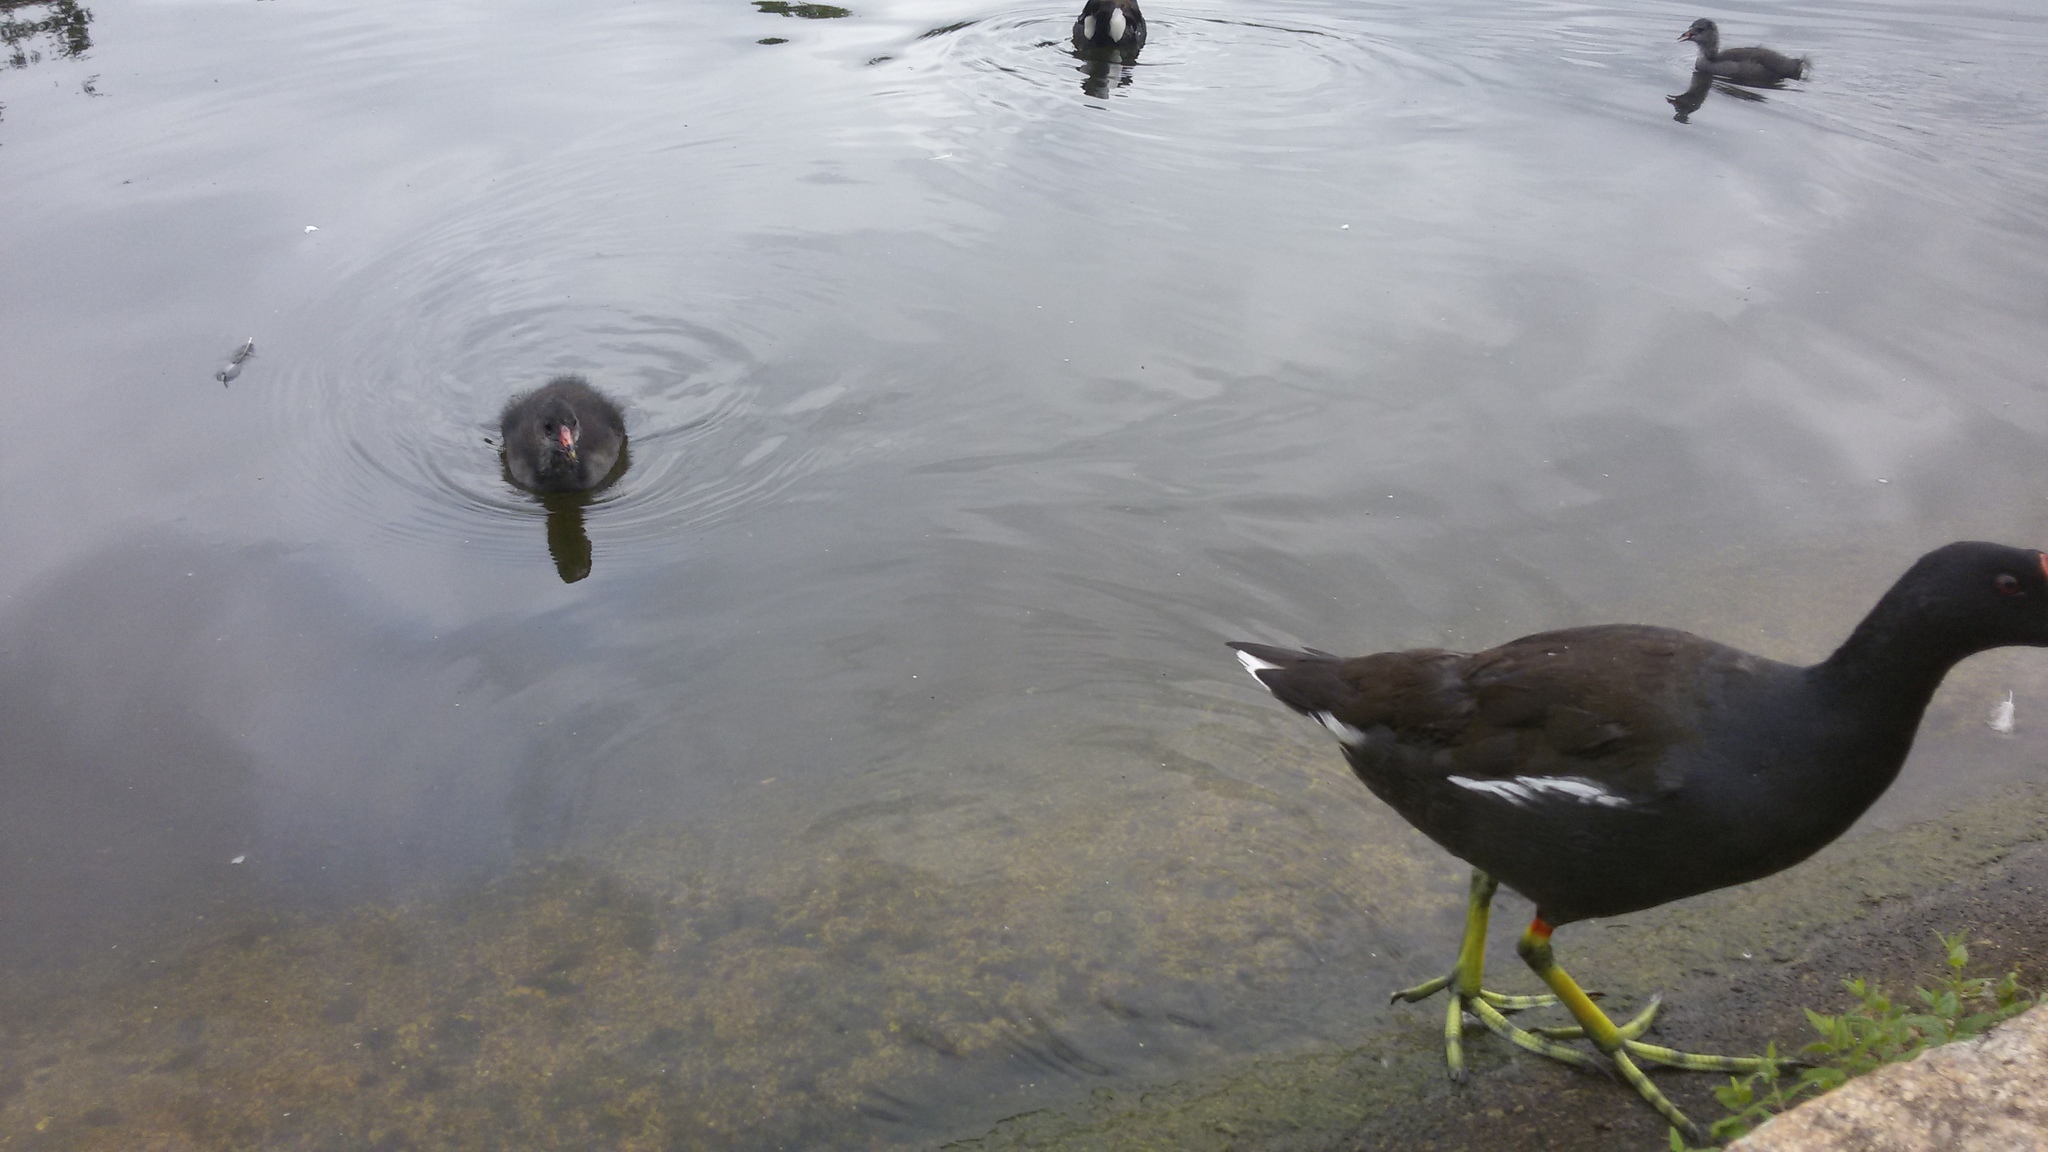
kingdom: Animalia
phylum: Chordata
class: Aves
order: Gruiformes
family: Rallidae
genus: Gallinula
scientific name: Gallinula chloropus
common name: Common moorhen
